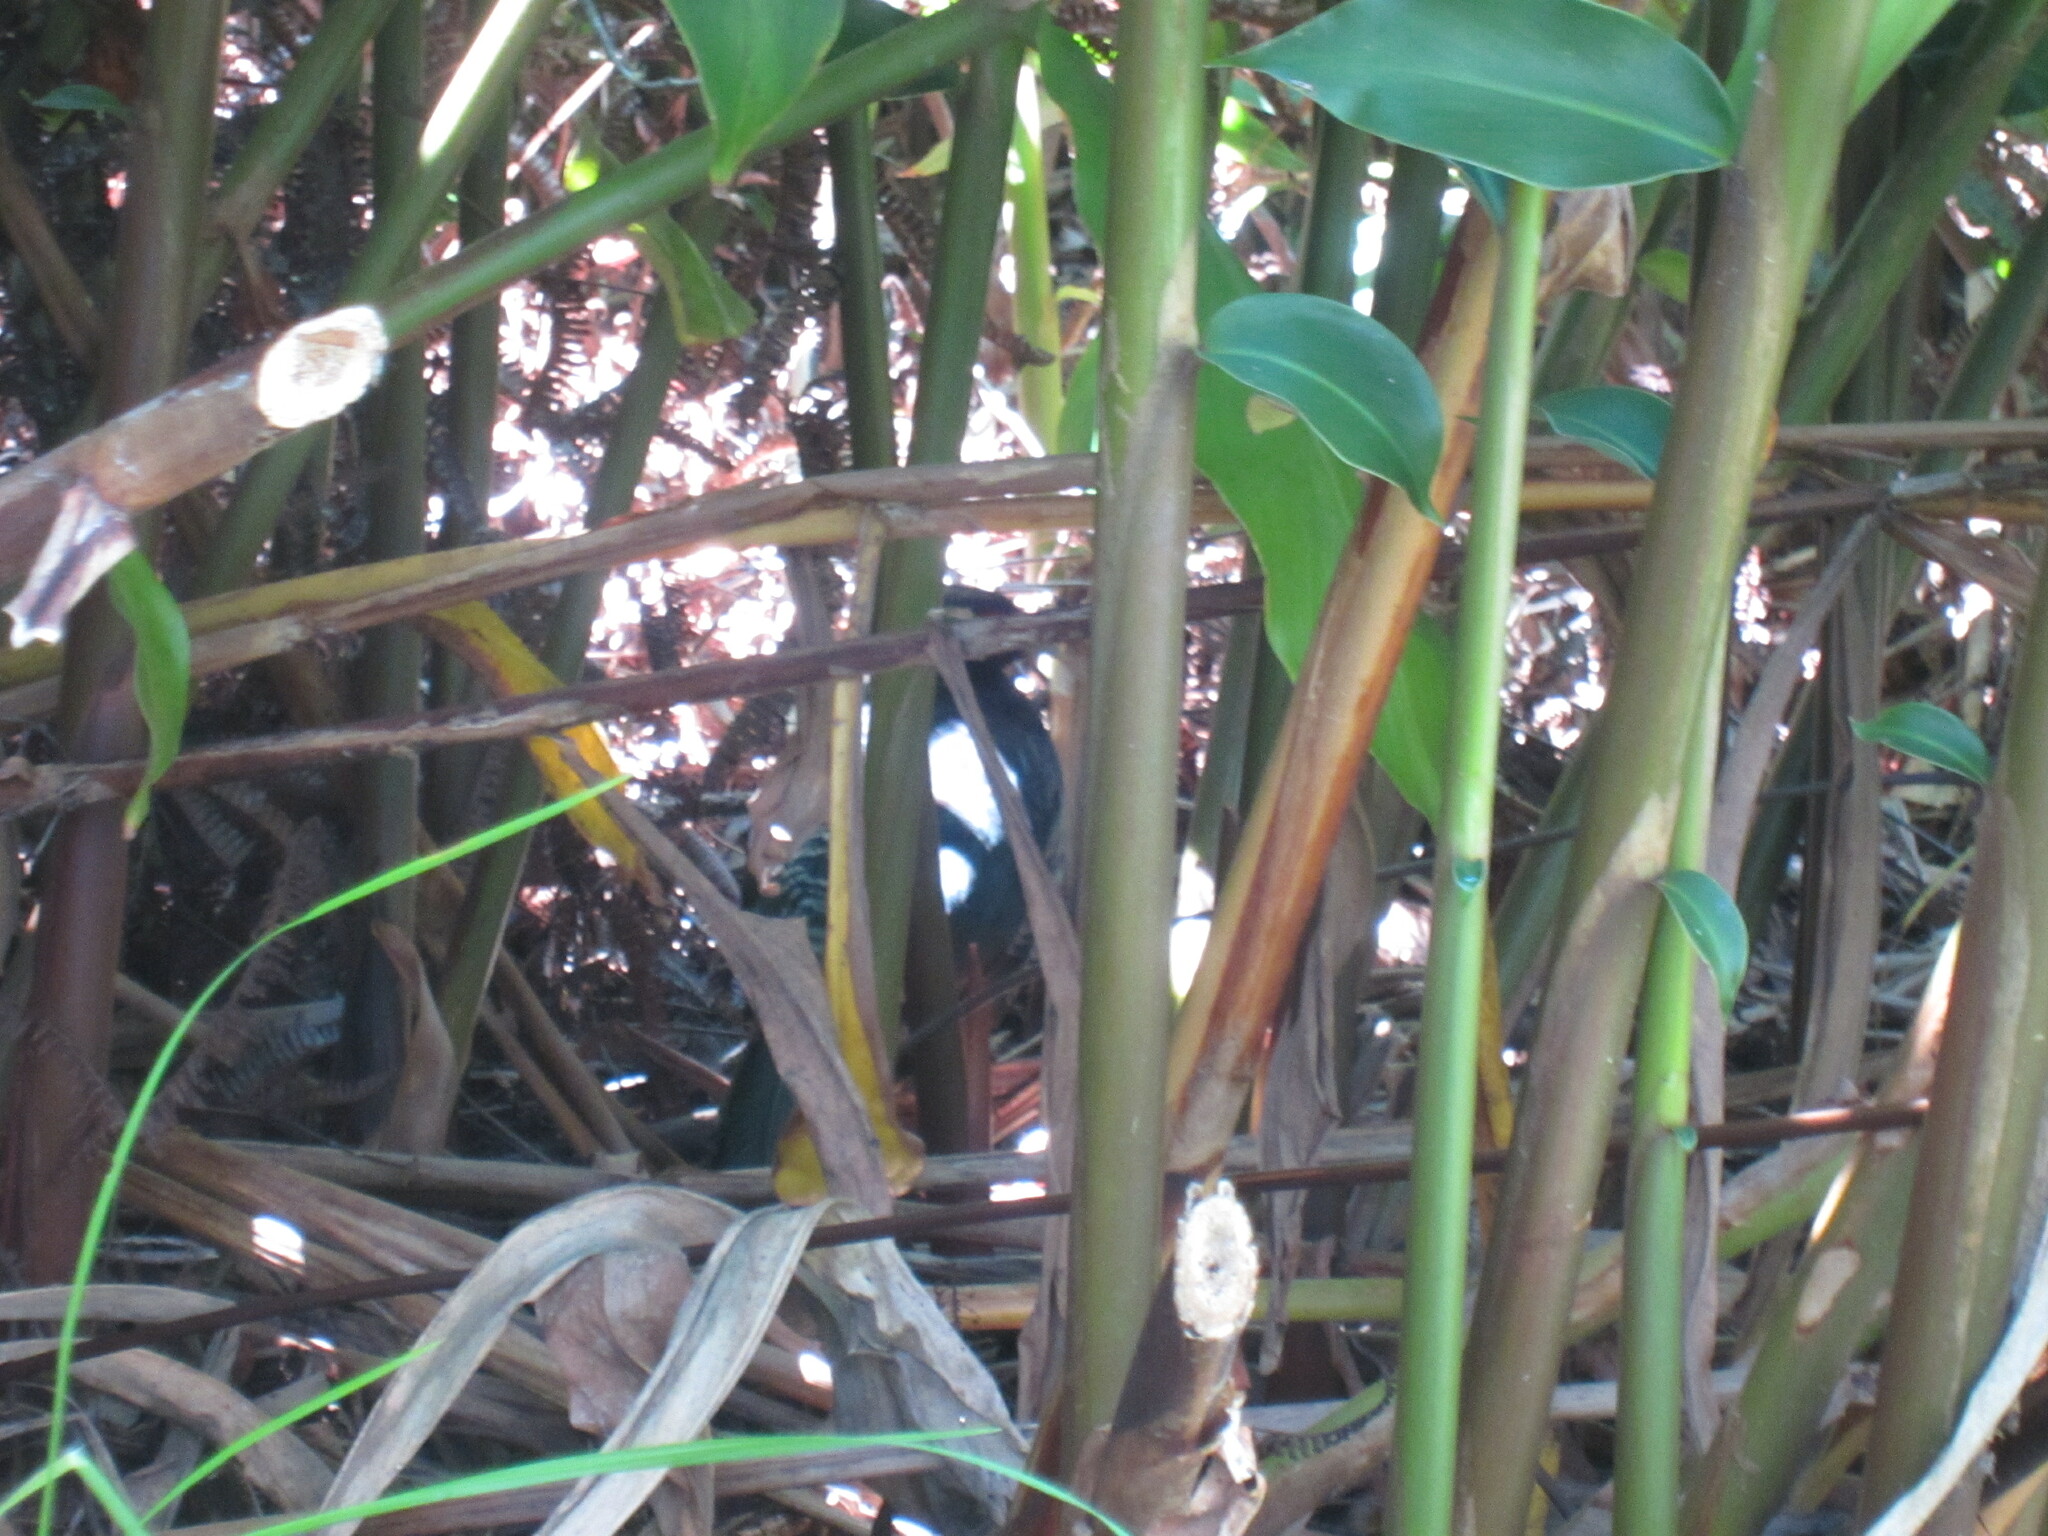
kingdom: Animalia
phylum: Chordata
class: Aves
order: Galliformes
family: Phasianidae
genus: Lophura
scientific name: Lophura leucomelanos
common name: Kalij pheasant
